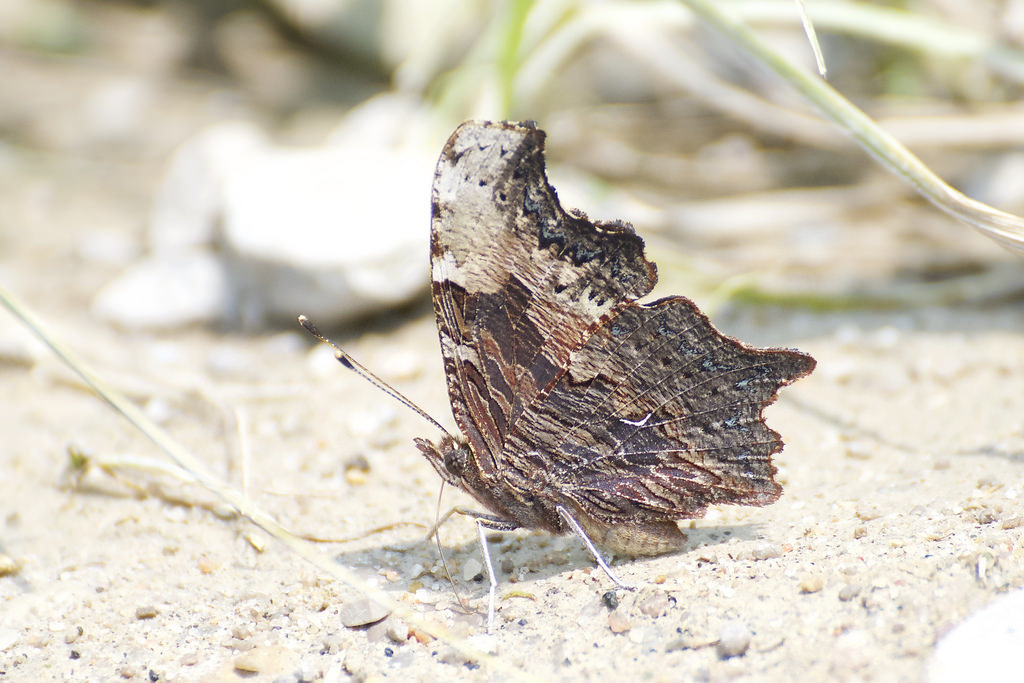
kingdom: Animalia
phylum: Arthropoda
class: Insecta
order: Lepidoptera
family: Nymphalidae
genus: Polygonia
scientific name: Polygonia progne
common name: Gray comma
